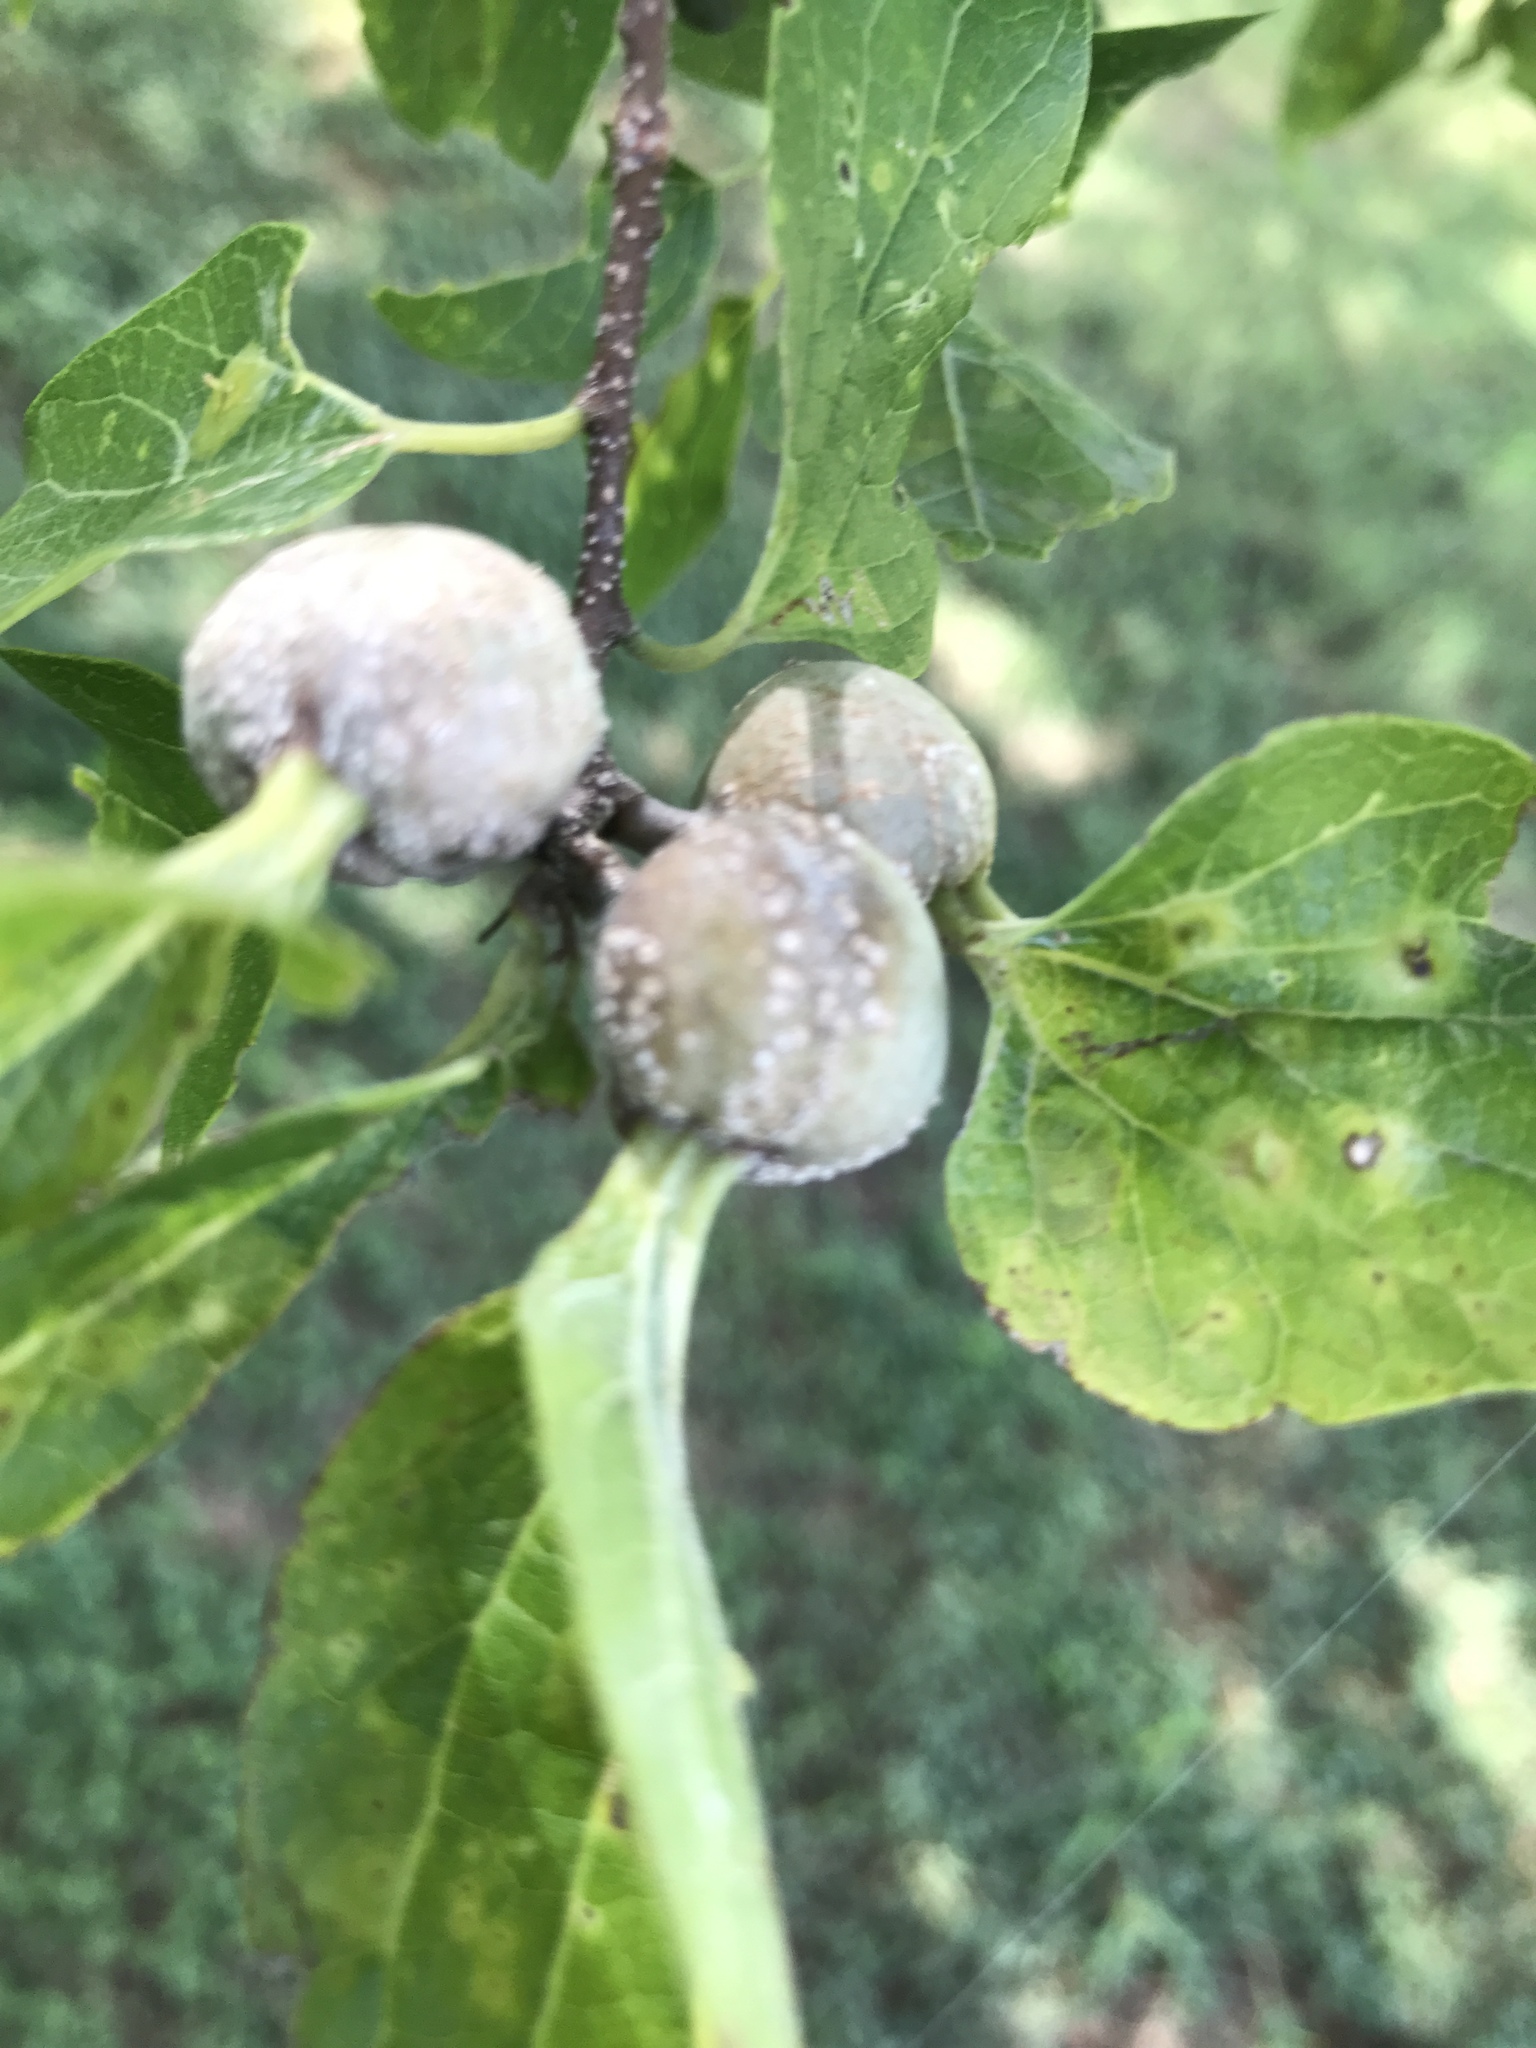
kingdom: Animalia
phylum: Arthropoda
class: Insecta
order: Hemiptera
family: Aphalaridae
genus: Pachypsylla
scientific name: Pachypsylla venusta
